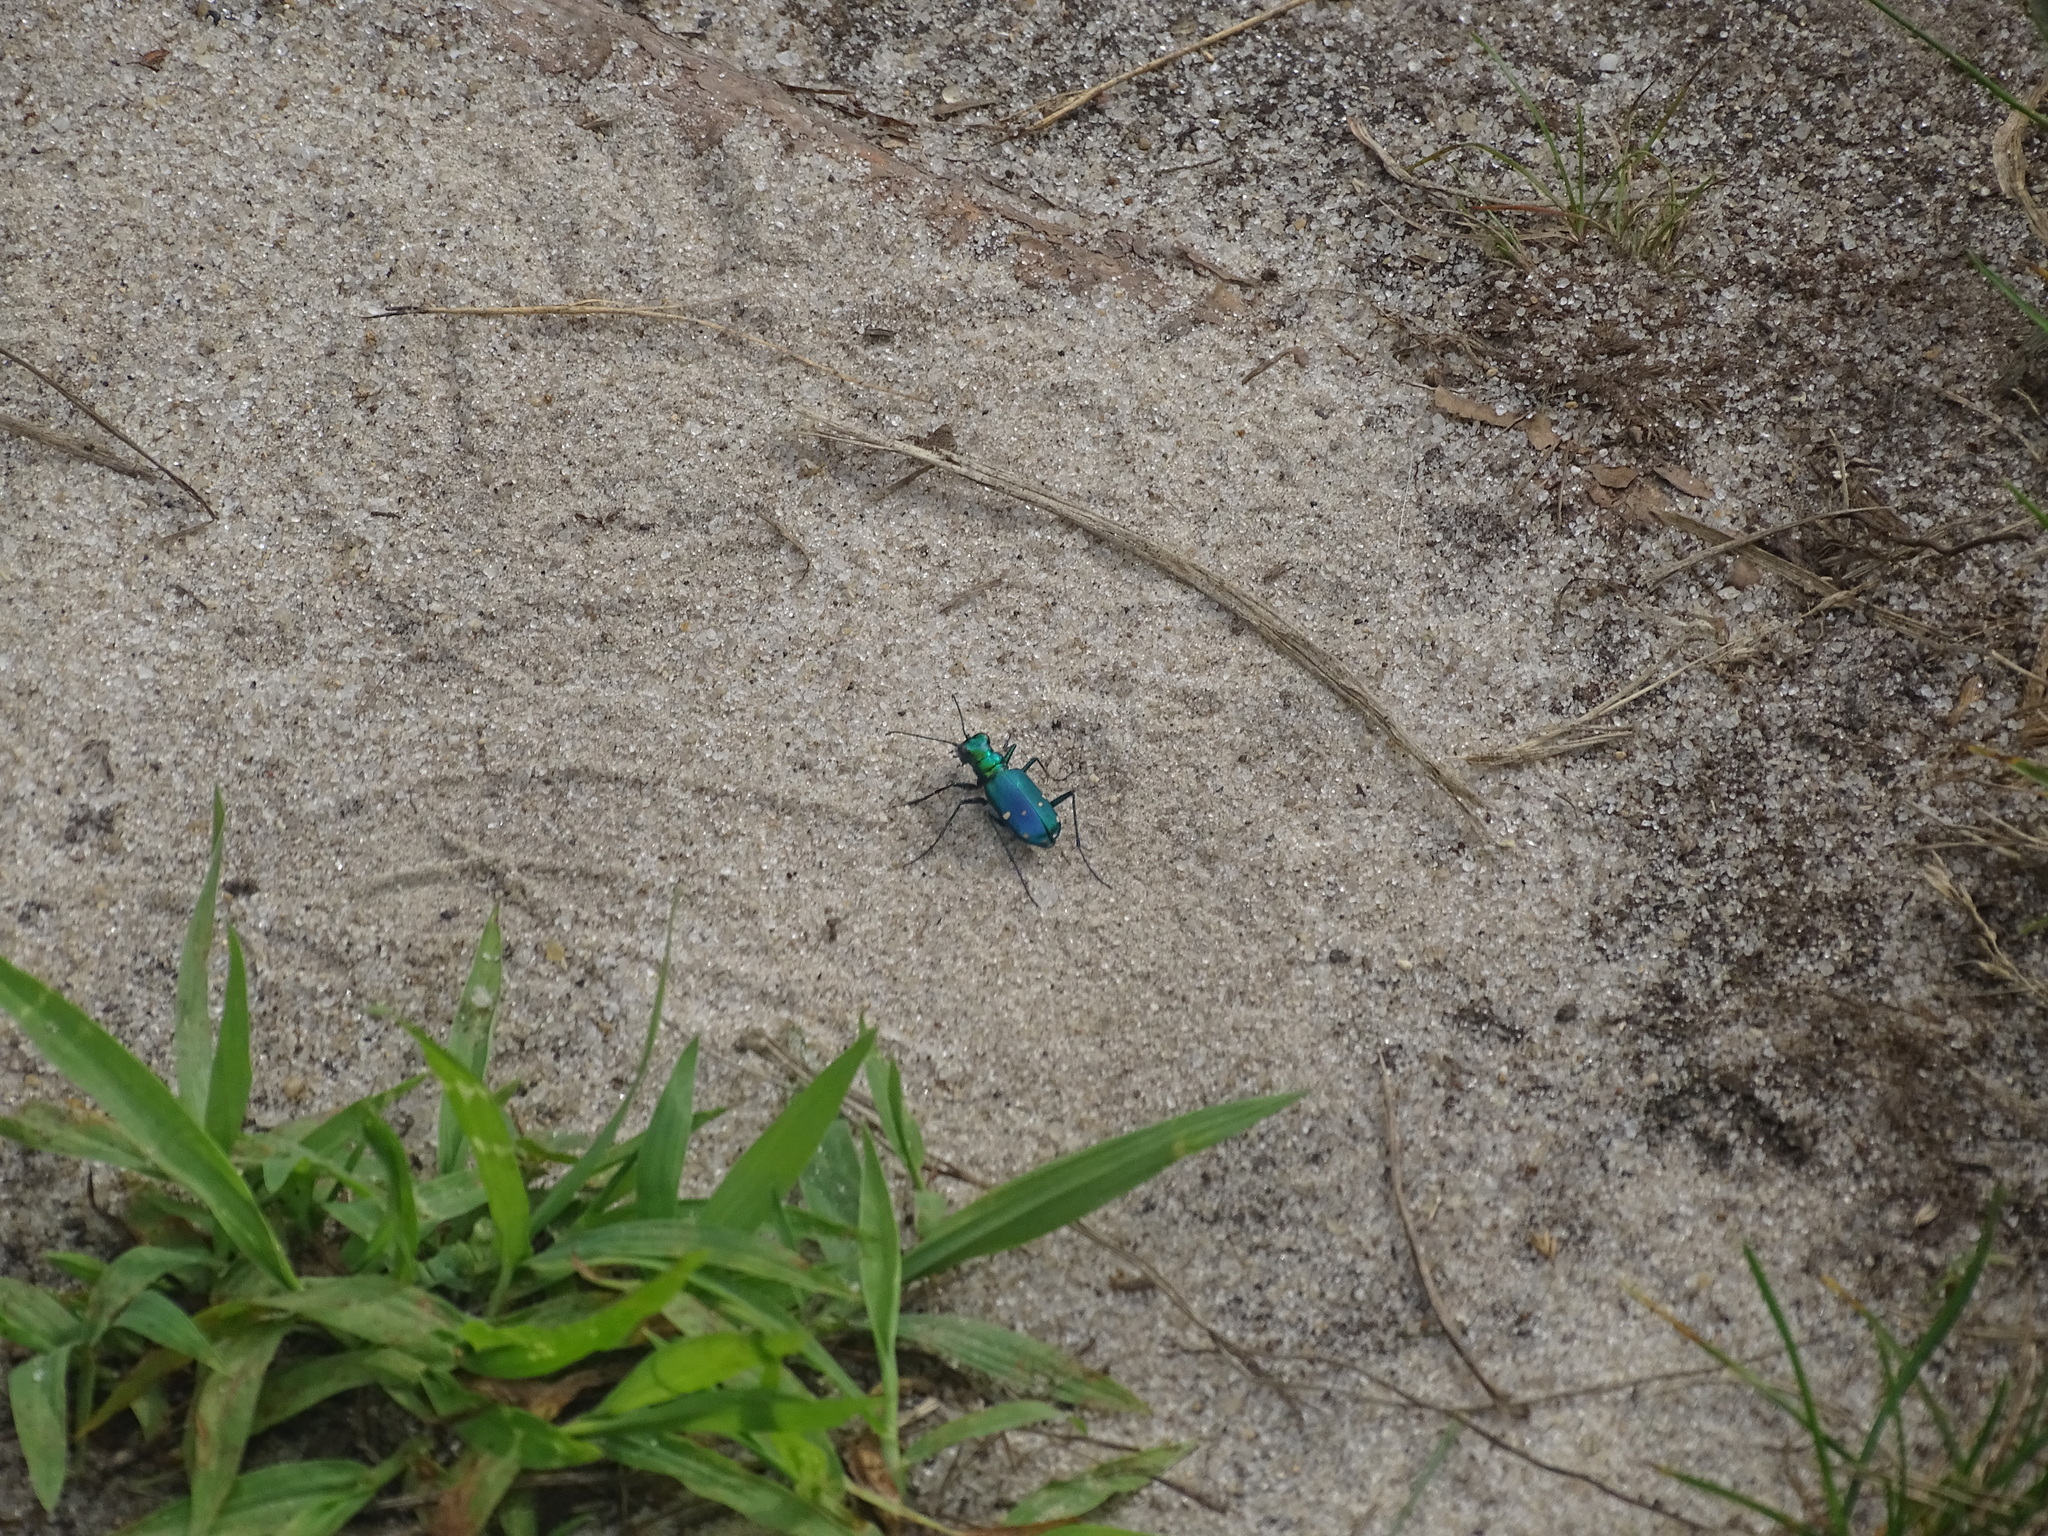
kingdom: Animalia
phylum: Arthropoda
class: Insecta
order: Coleoptera
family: Carabidae
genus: Cicindela
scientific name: Cicindela sexguttata
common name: Six-spotted tiger beetle
